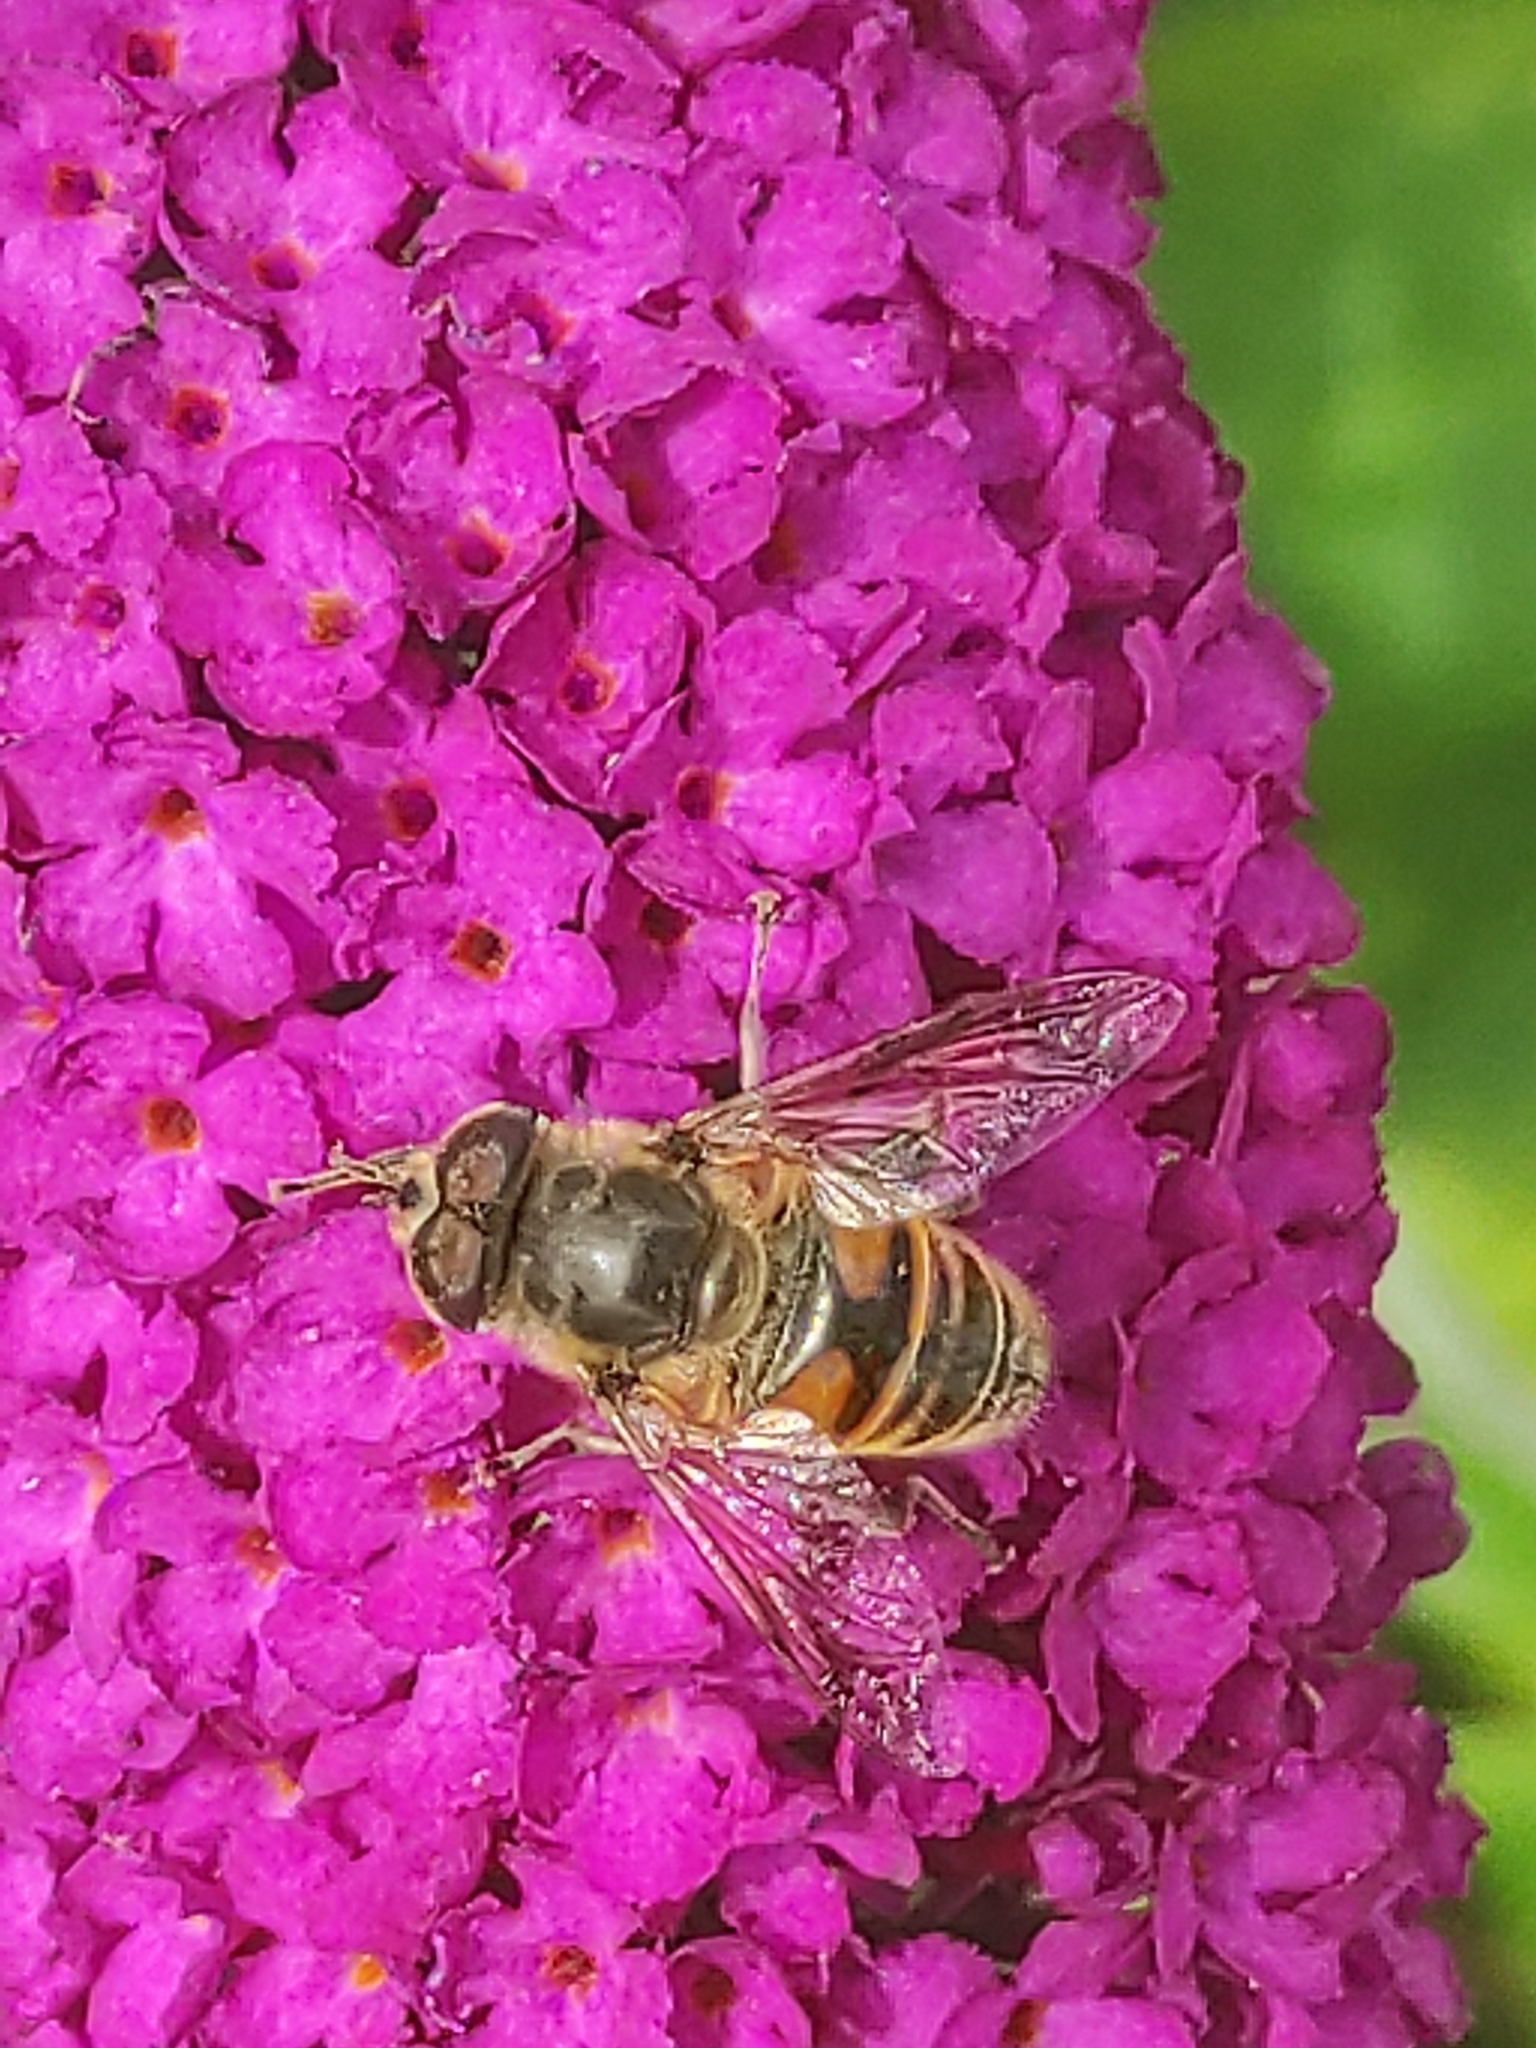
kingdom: Animalia
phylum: Arthropoda
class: Insecta
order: Diptera
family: Syrphidae
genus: Eristalis
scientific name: Eristalis tenax
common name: Drone fly
